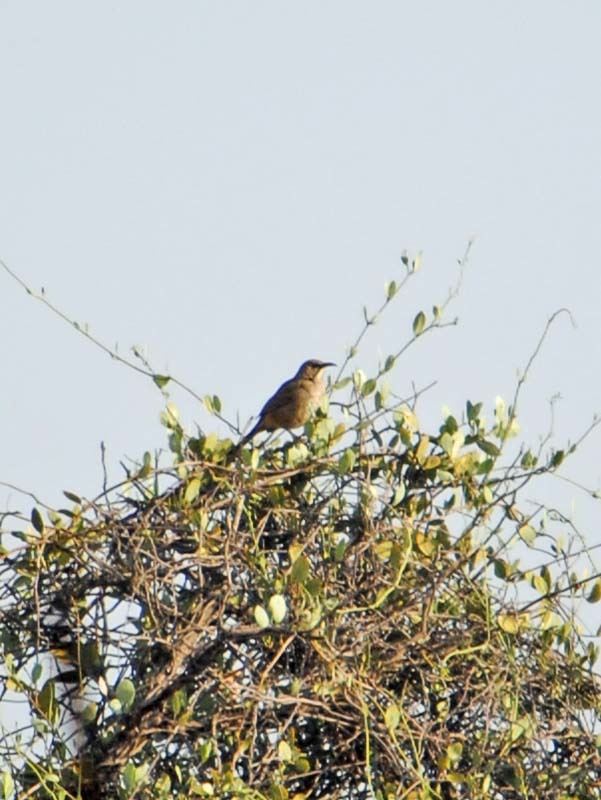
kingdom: Animalia
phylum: Chordata
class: Aves
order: Passeriformes
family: Mimidae
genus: Toxostoma
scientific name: Toxostoma curvirostre
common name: Curve-billed thrasher
